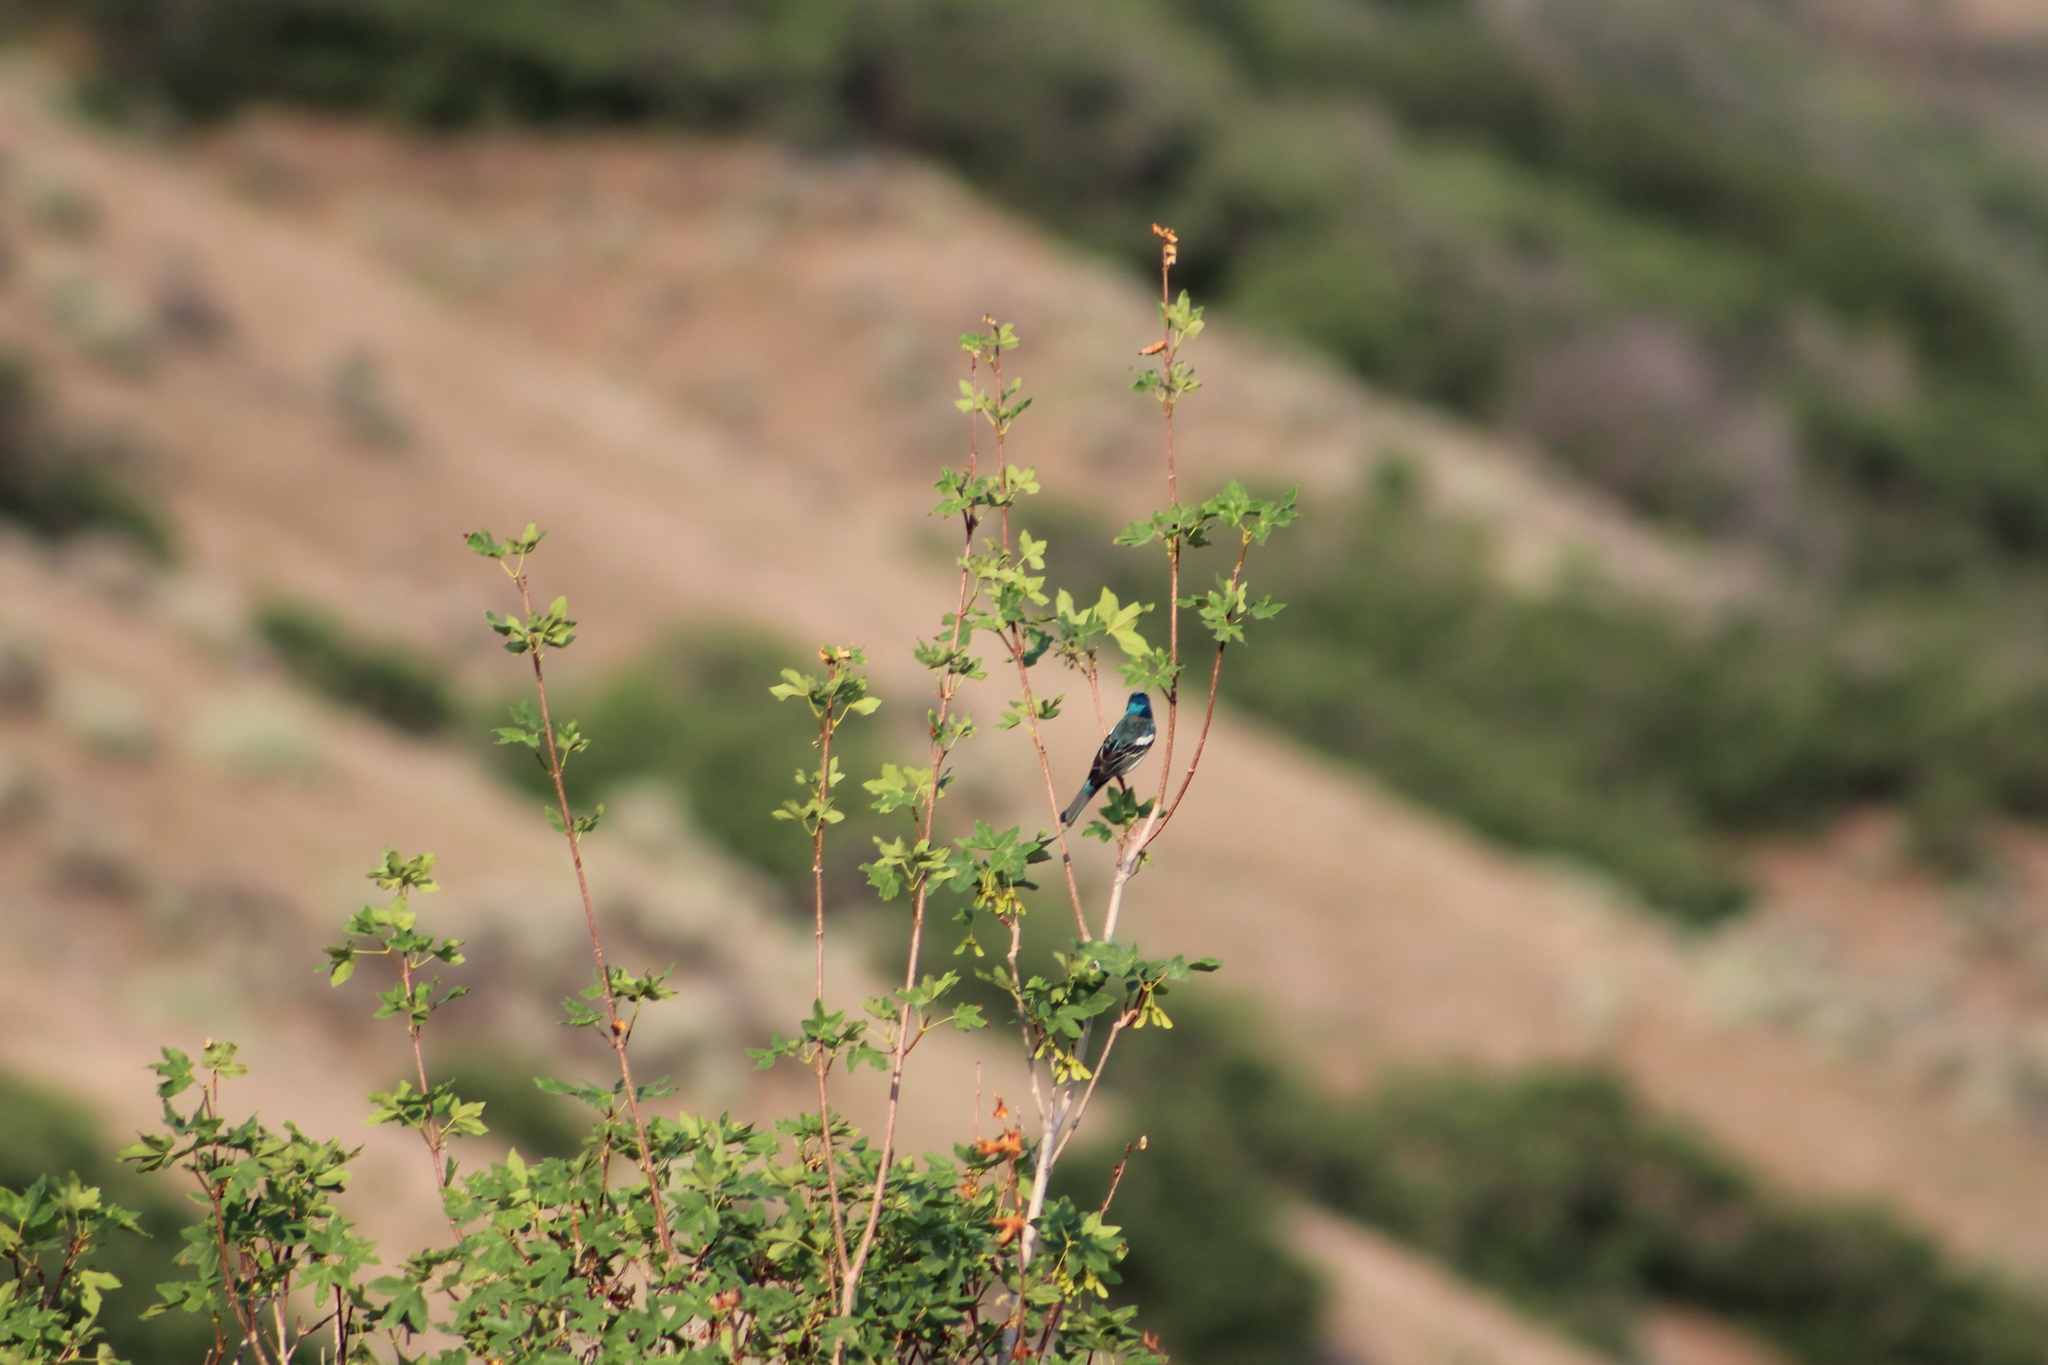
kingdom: Animalia
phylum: Chordata
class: Aves
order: Passeriformes
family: Cardinalidae
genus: Passerina
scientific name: Passerina amoena
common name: Lazuli bunting
